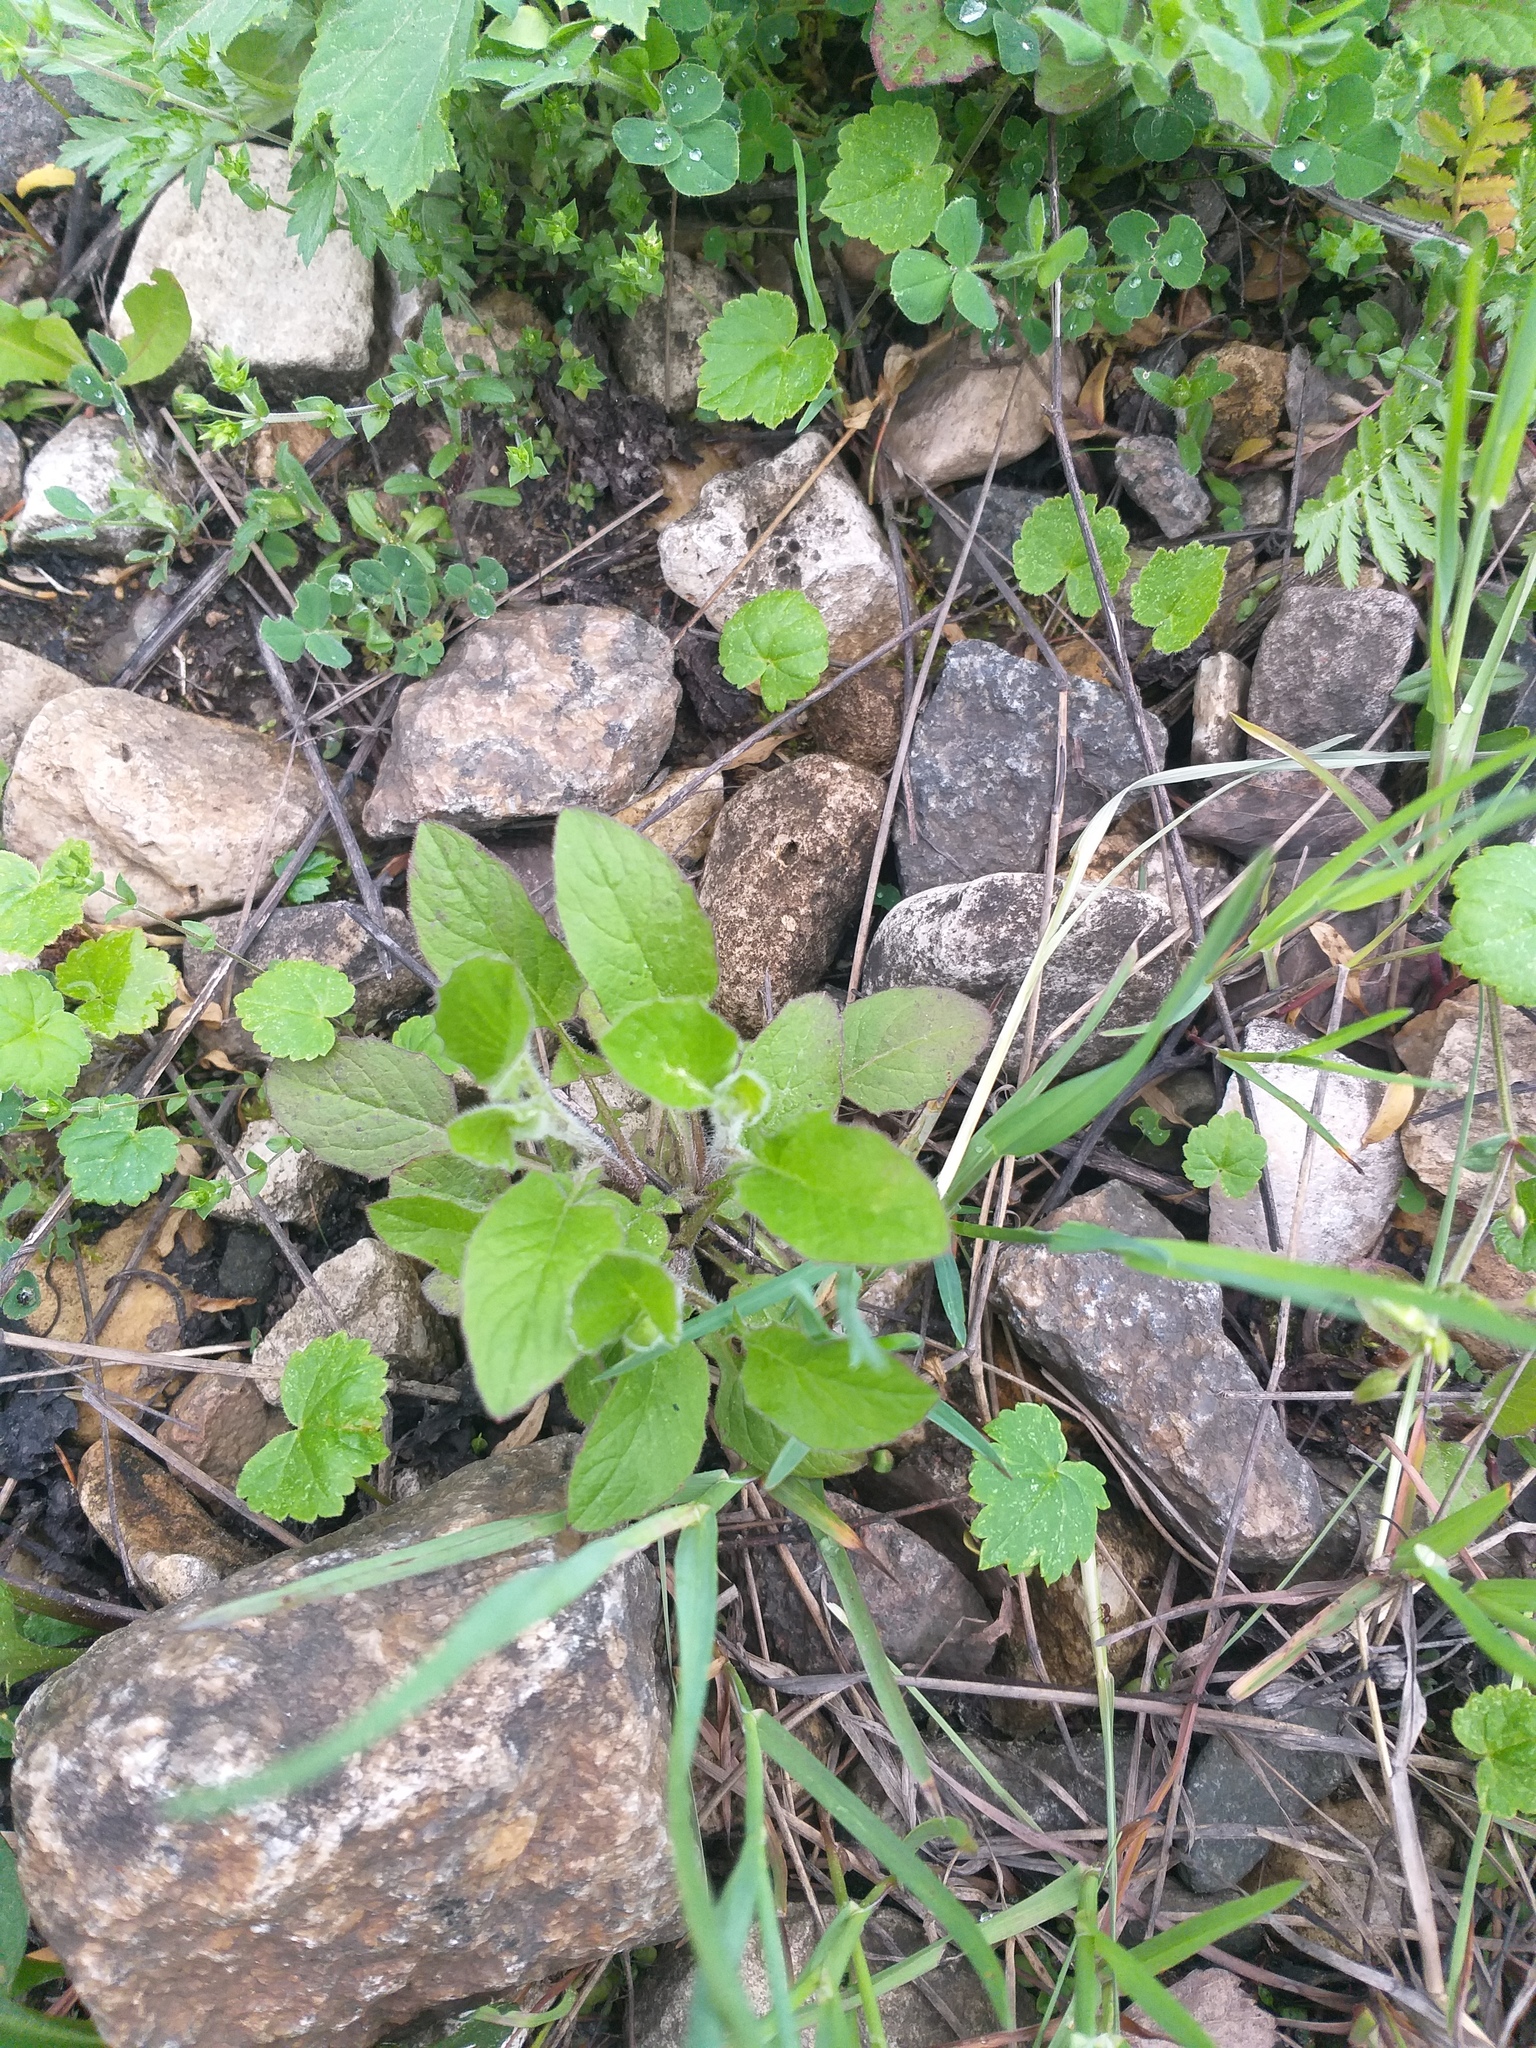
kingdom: Plantae
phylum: Tracheophyta
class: Magnoliopsida
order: Asterales
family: Asteraceae
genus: Lapsana
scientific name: Lapsana communis
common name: Nipplewort
